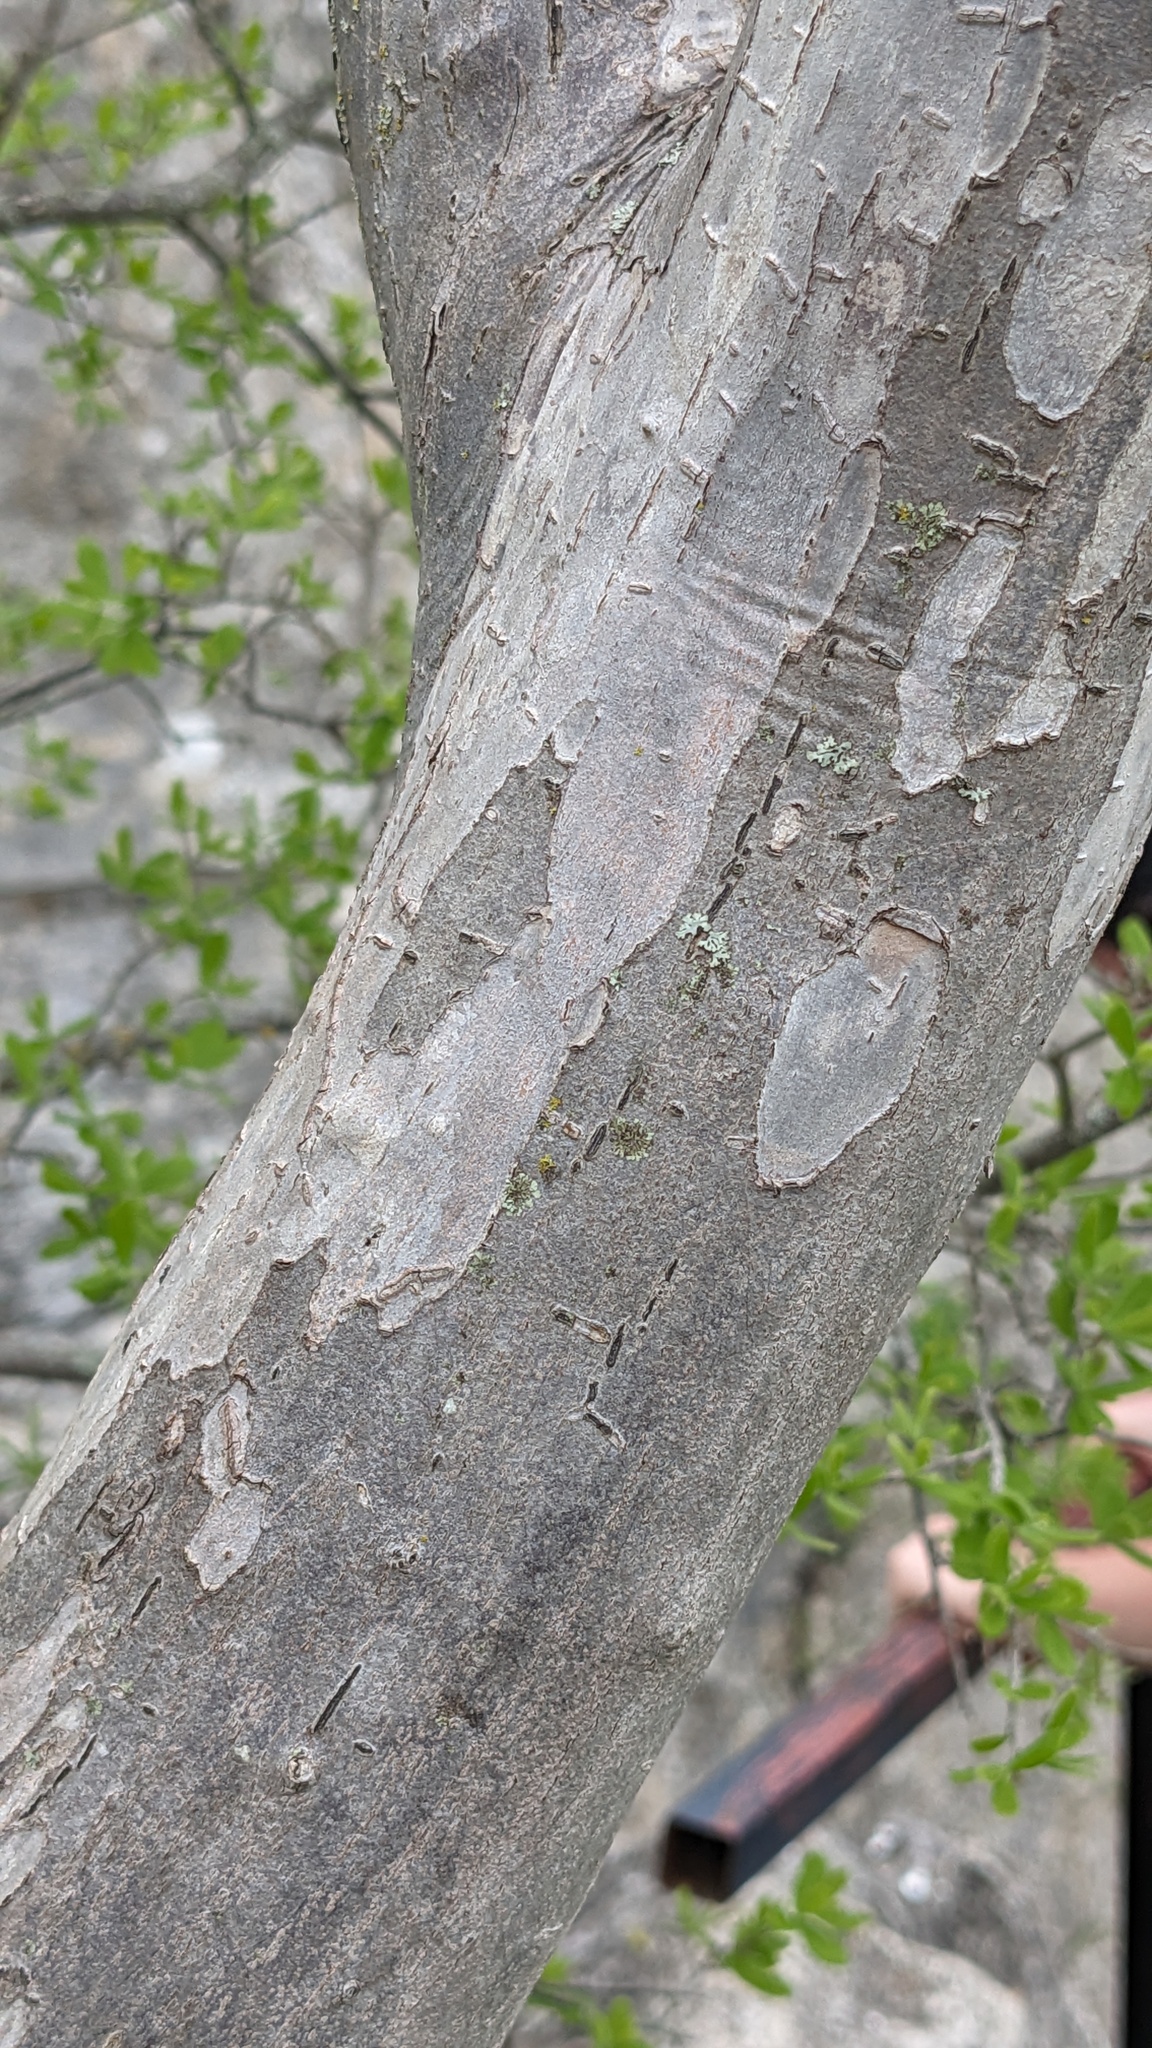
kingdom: Plantae
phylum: Tracheophyta
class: Magnoliopsida
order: Ericales
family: Ebenaceae
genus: Diospyros
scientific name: Diospyros texana
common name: Texas persimmon
